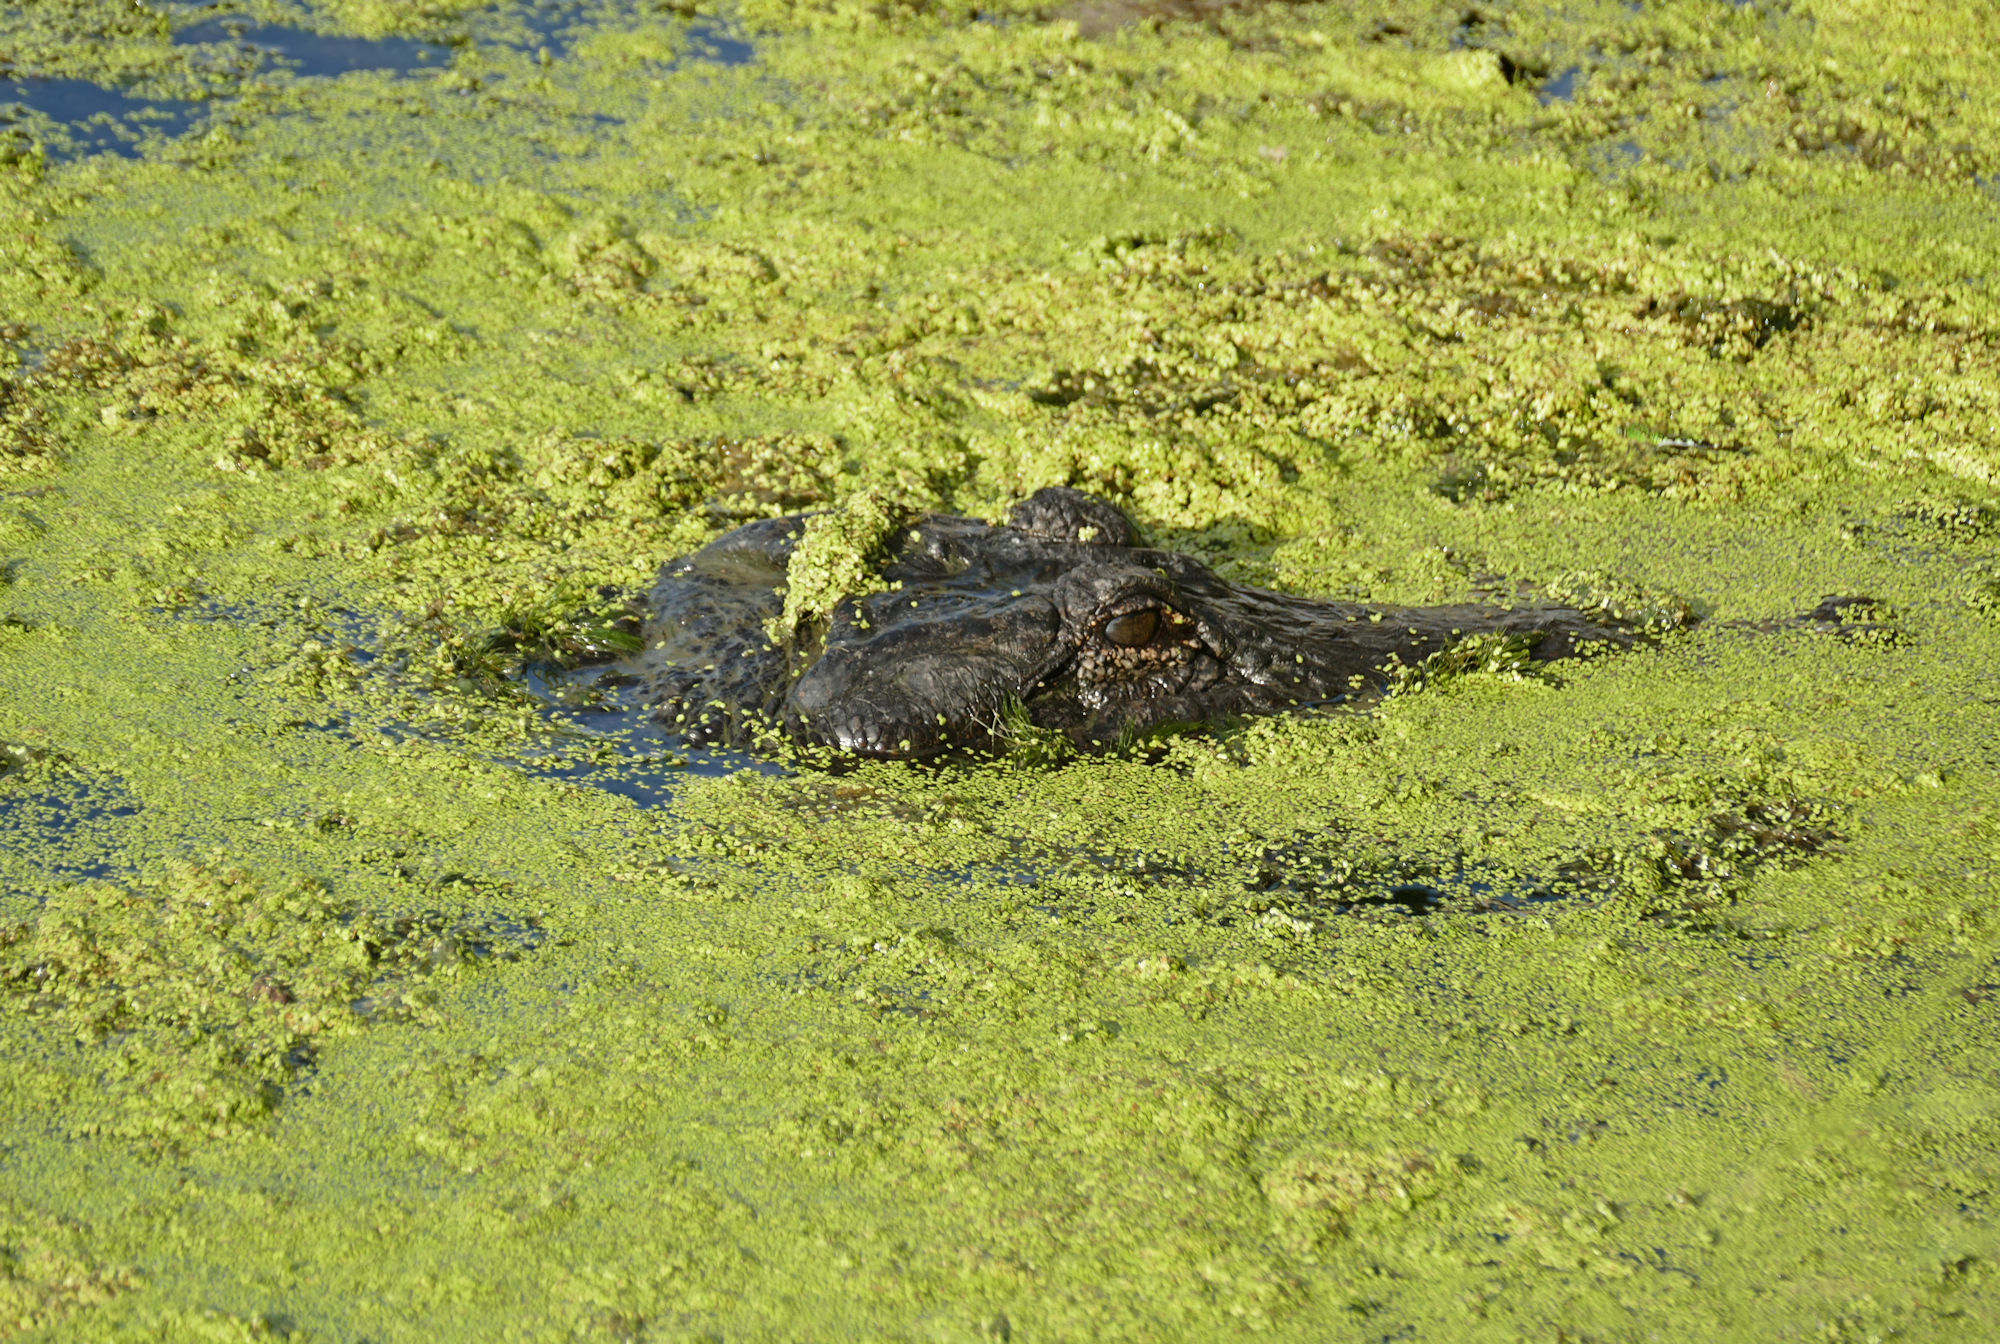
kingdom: Animalia
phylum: Chordata
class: Crocodylia
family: Alligatoridae
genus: Alligator
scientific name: Alligator mississippiensis
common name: American alligator
